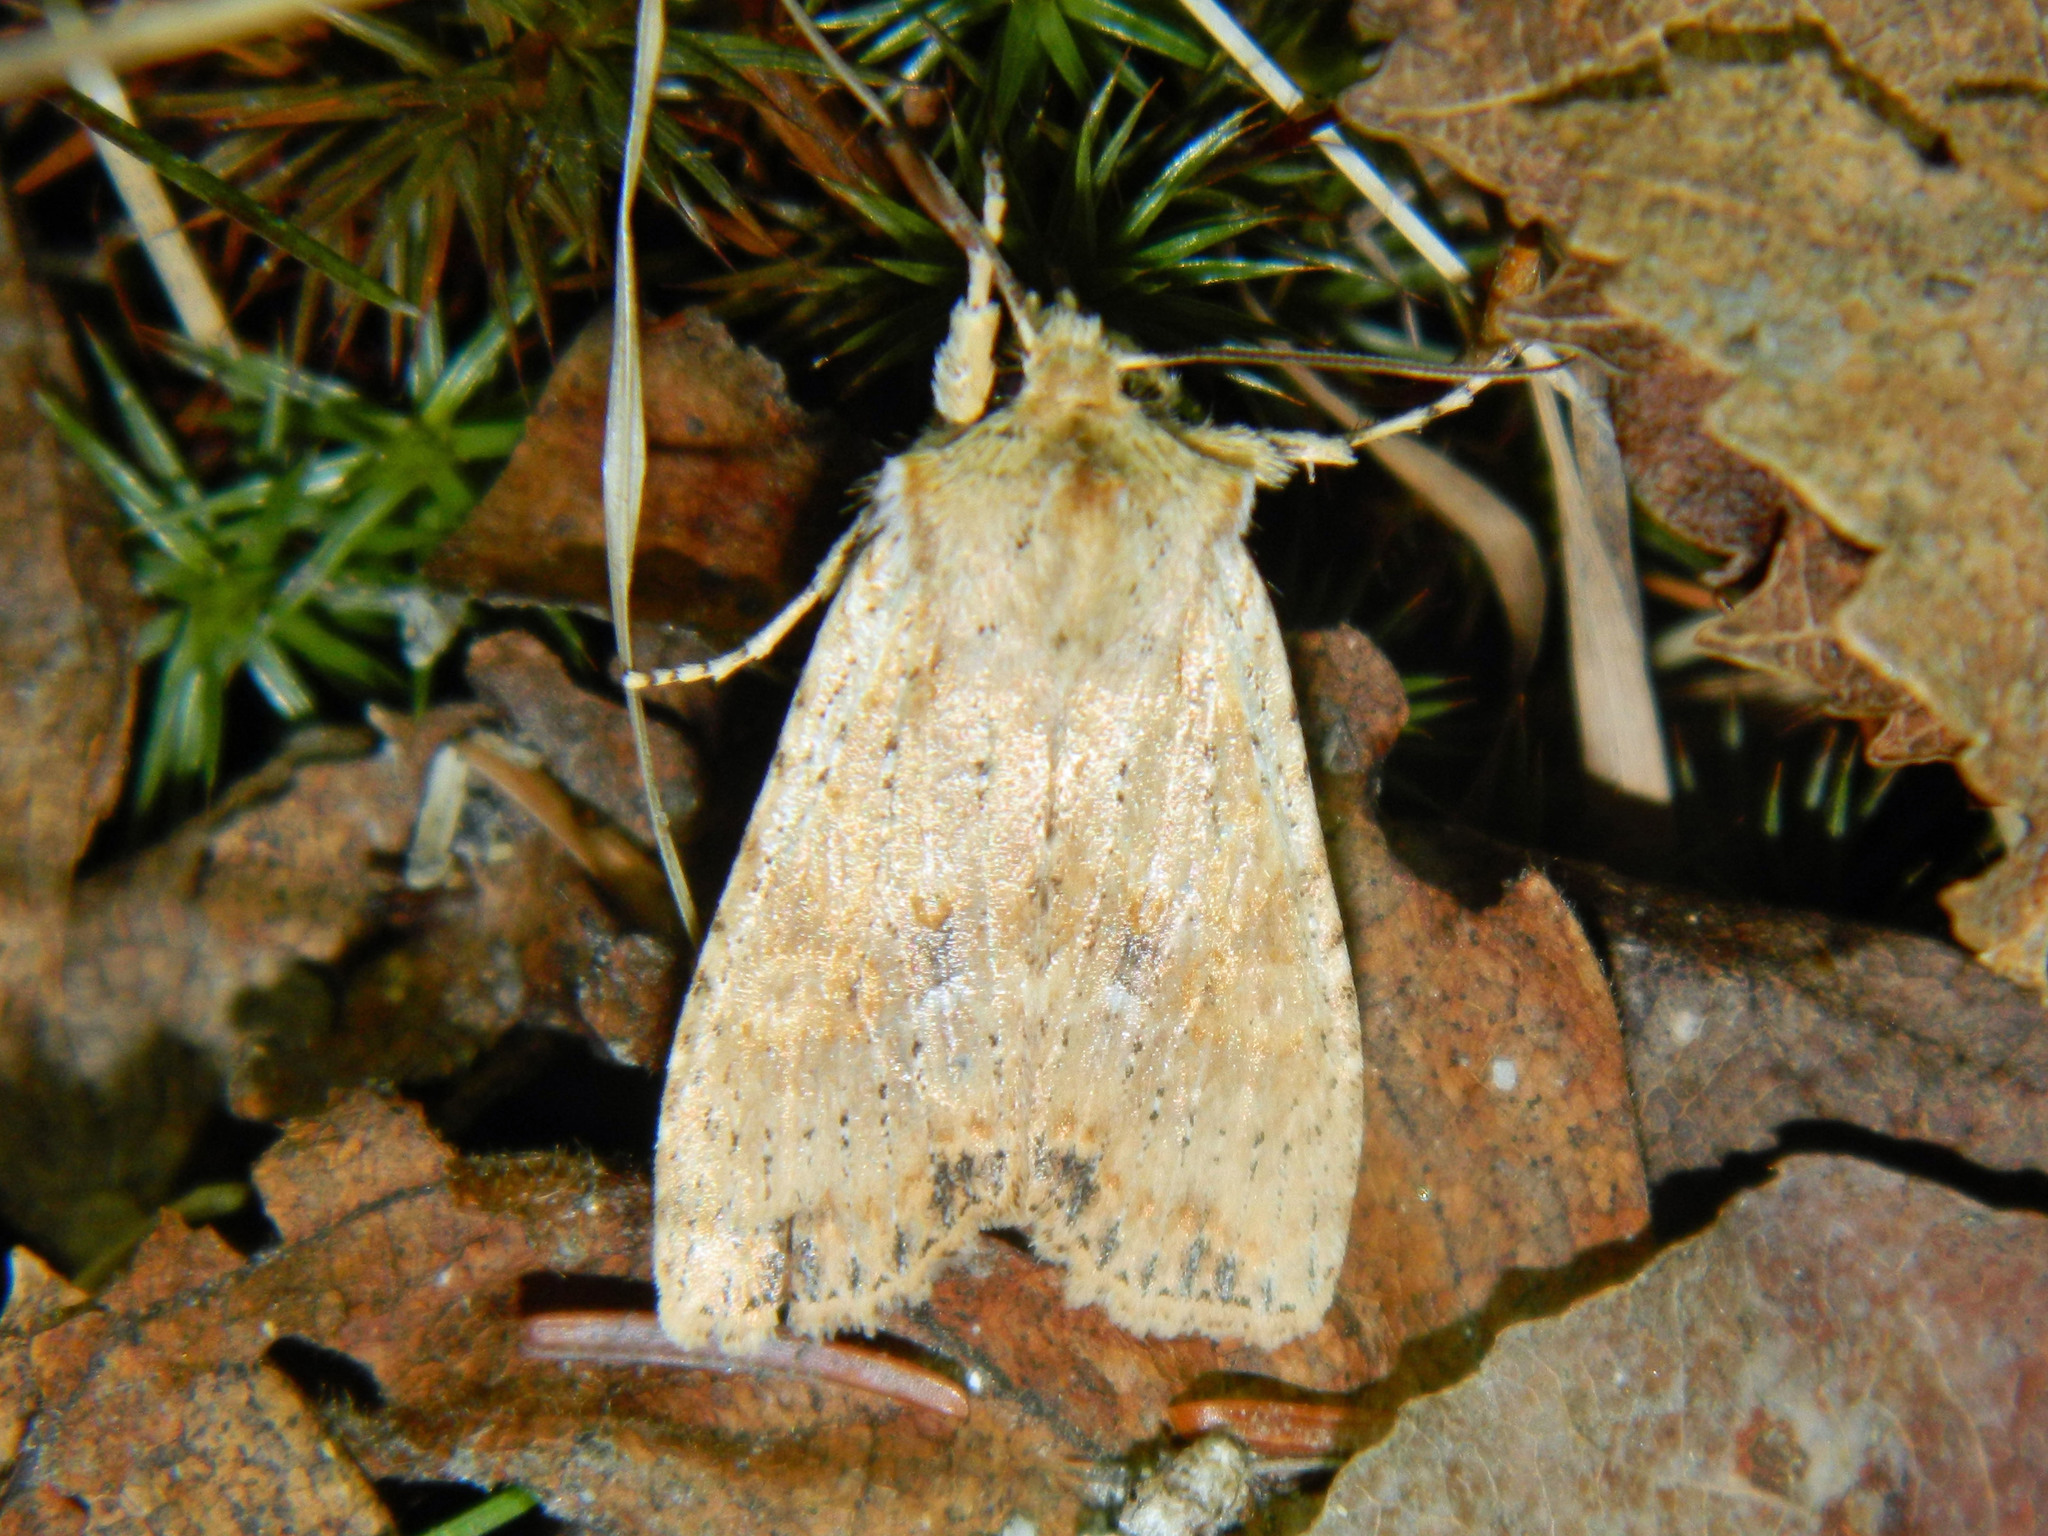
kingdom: Animalia
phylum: Arthropoda
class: Insecta
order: Lepidoptera
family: Noctuidae
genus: Lithophane
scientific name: Lithophane innominata
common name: Nameless pinion moth
